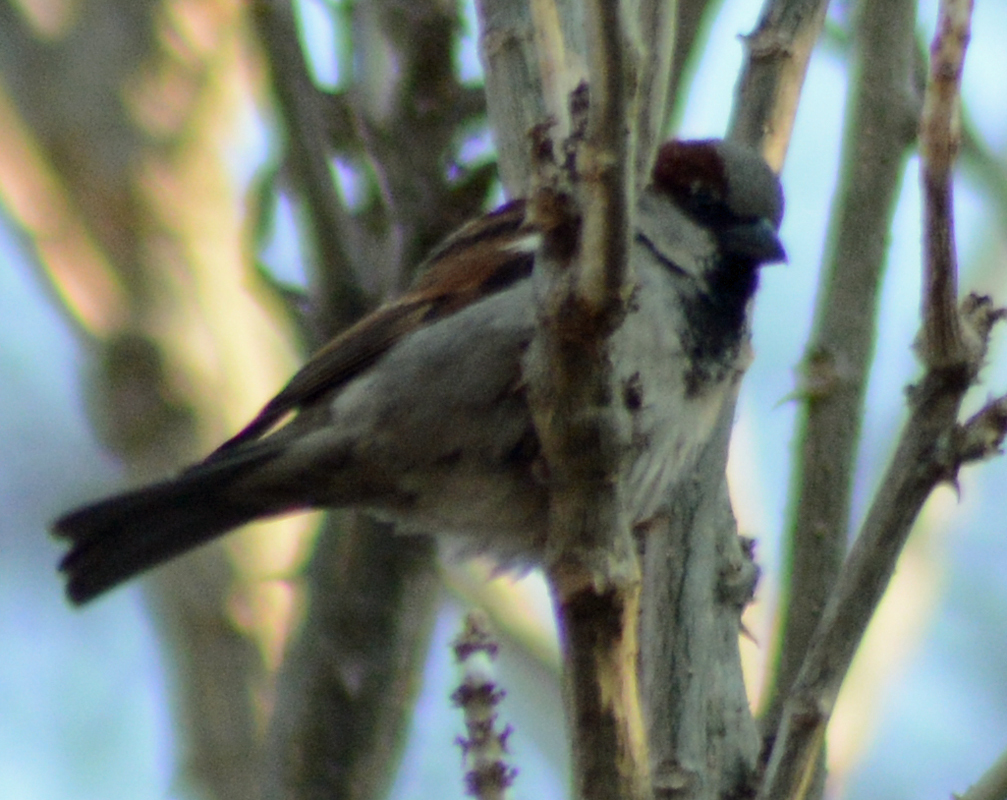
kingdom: Animalia
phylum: Chordata
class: Aves
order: Passeriformes
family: Passeridae
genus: Passer
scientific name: Passer domesticus
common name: House sparrow
